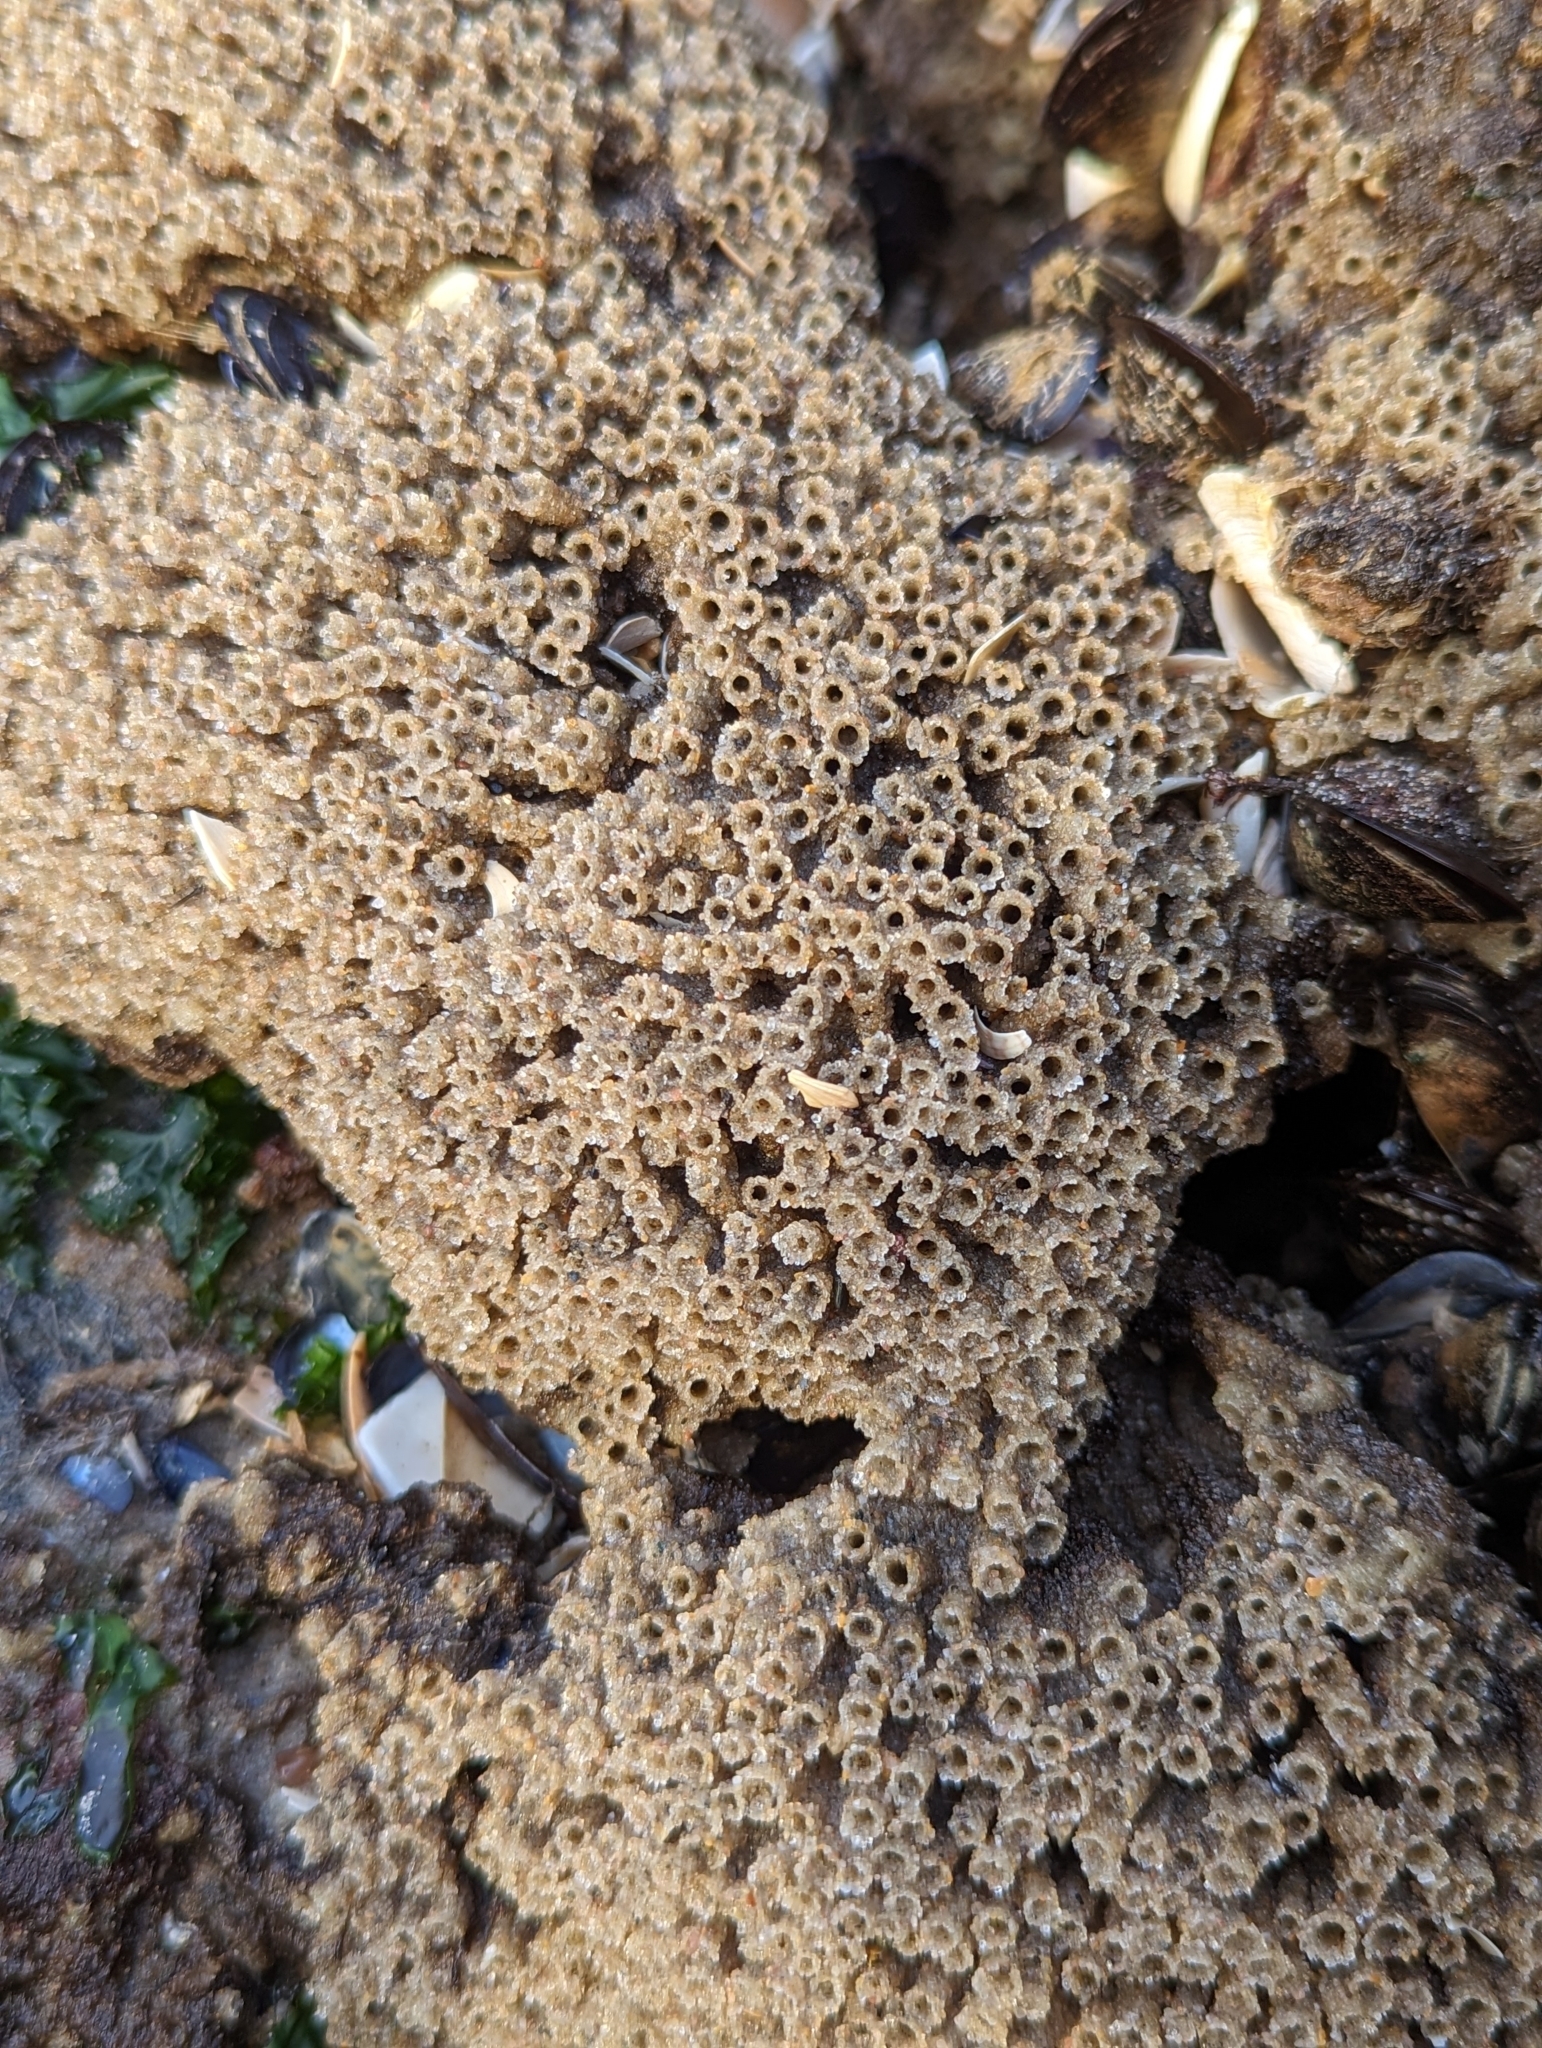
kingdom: Animalia
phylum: Annelida
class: Polychaeta
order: Sabellida
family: Sabellariidae
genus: Phragmatopoma
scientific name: Phragmatopoma caudata
